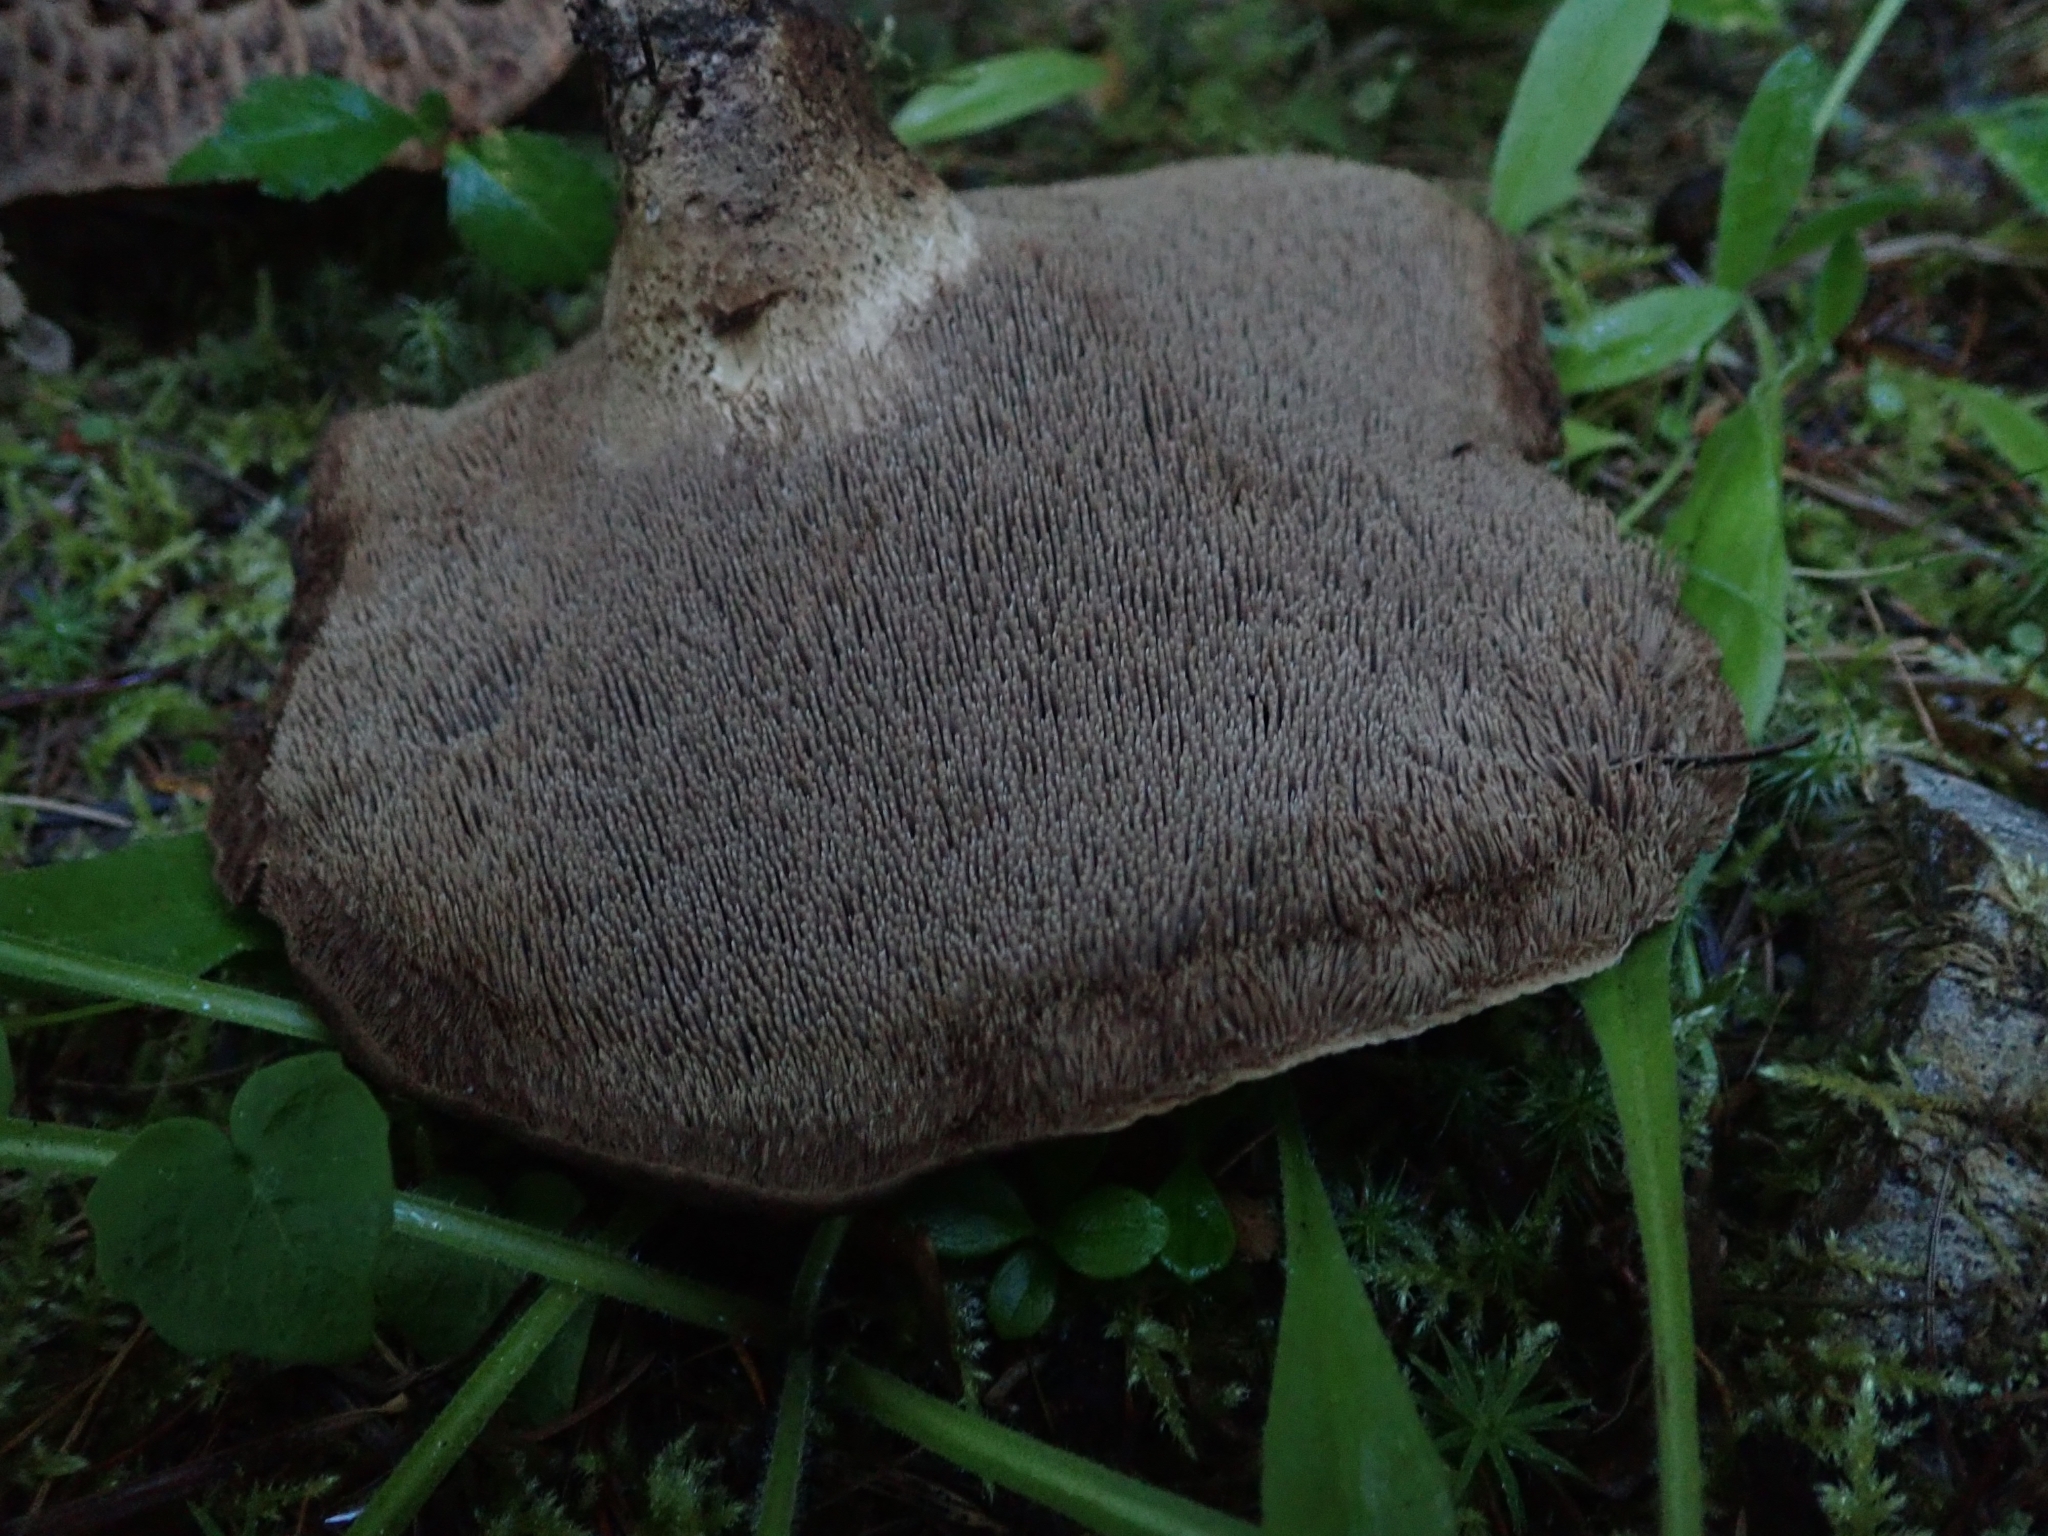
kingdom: Fungi
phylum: Basidiomycota
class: Agaricomycetes
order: Thelephorales
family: Bankeraceae
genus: Sarcodon
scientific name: Sarcodon imbricatus
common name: Shingled hedgehog
